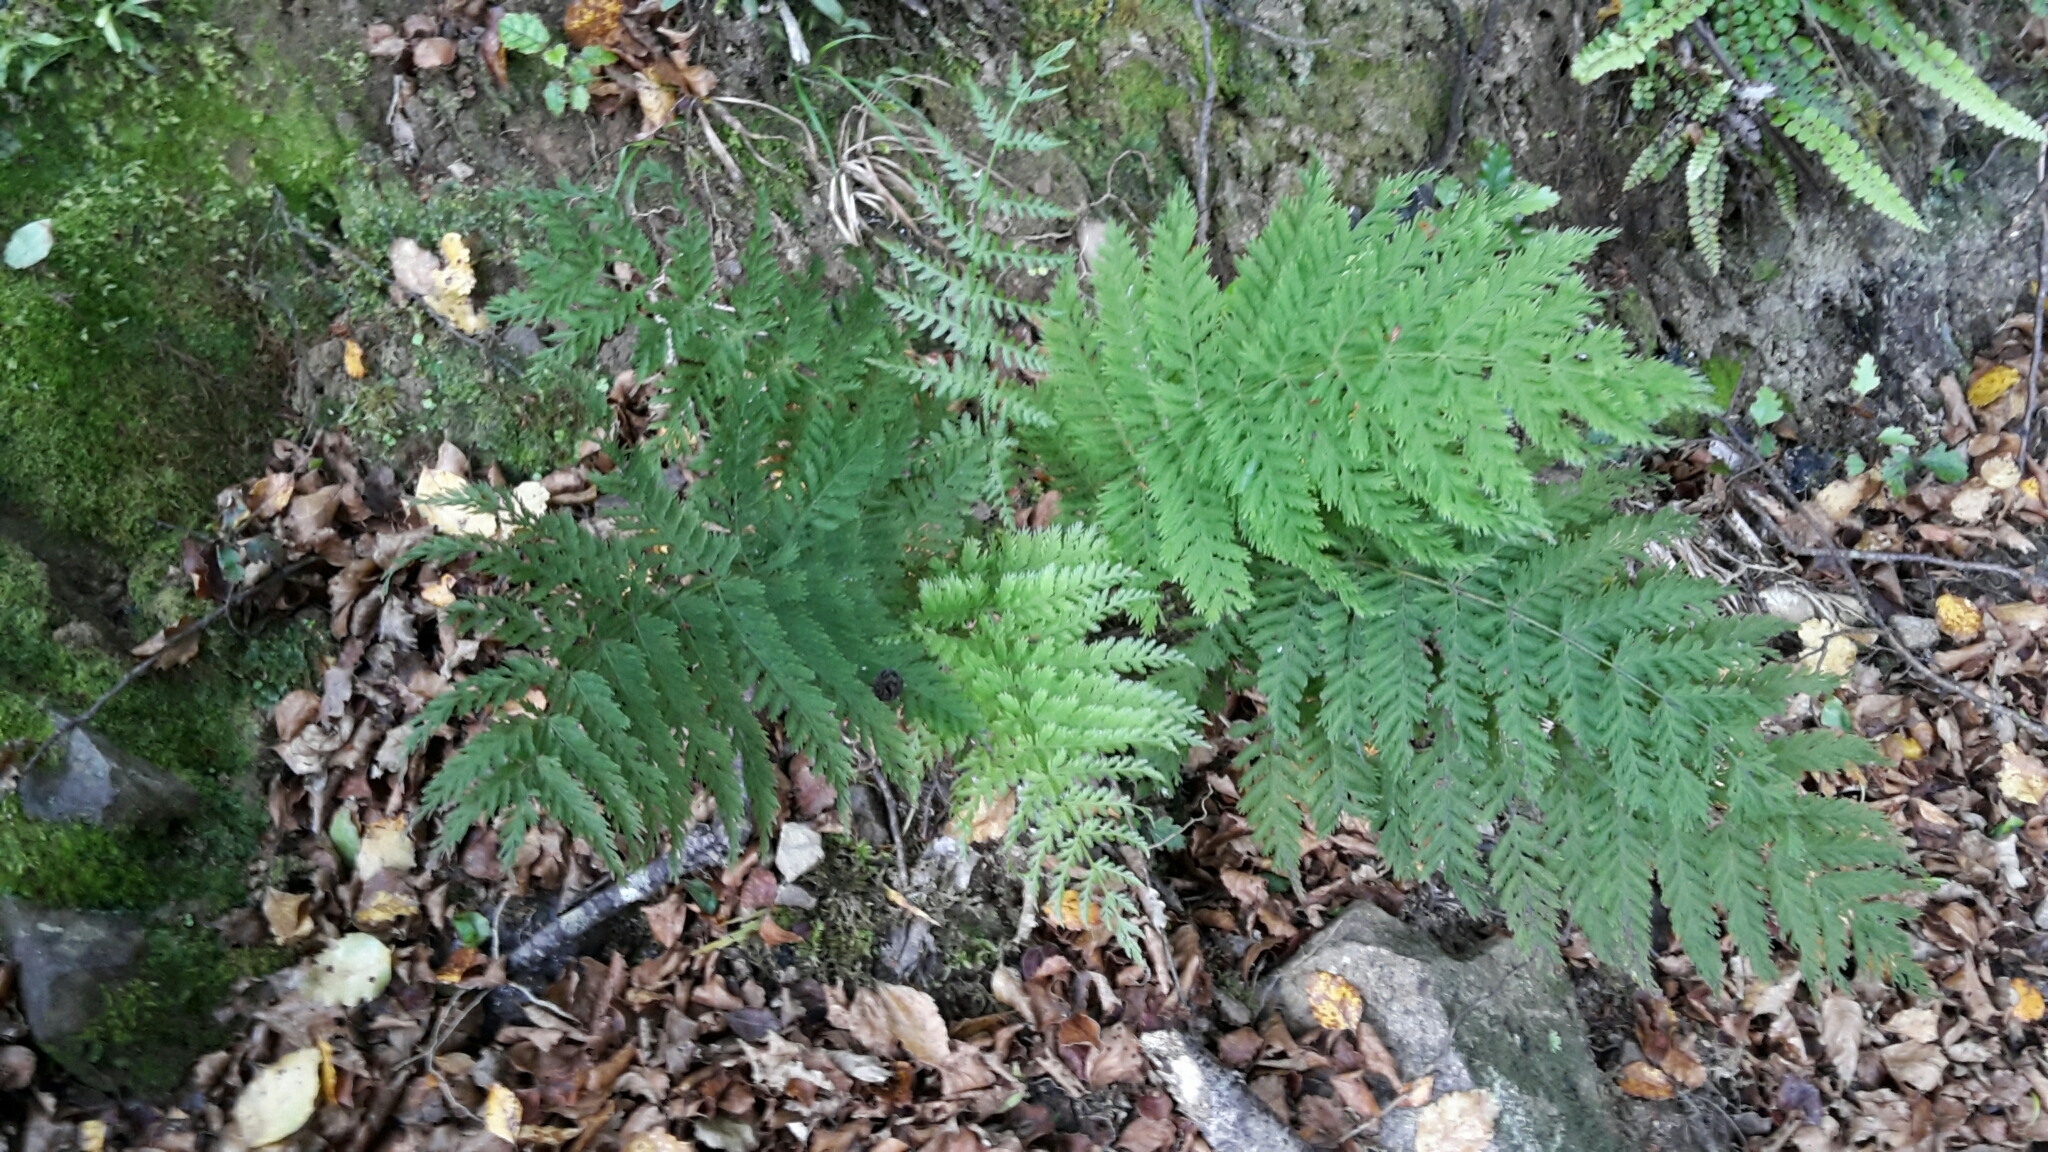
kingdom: Plantae
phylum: Tracheophyta
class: Polypodiopsida
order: Osmundales
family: Osmundaceae
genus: Leptopteris
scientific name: Leptopteris hymenophylloides
